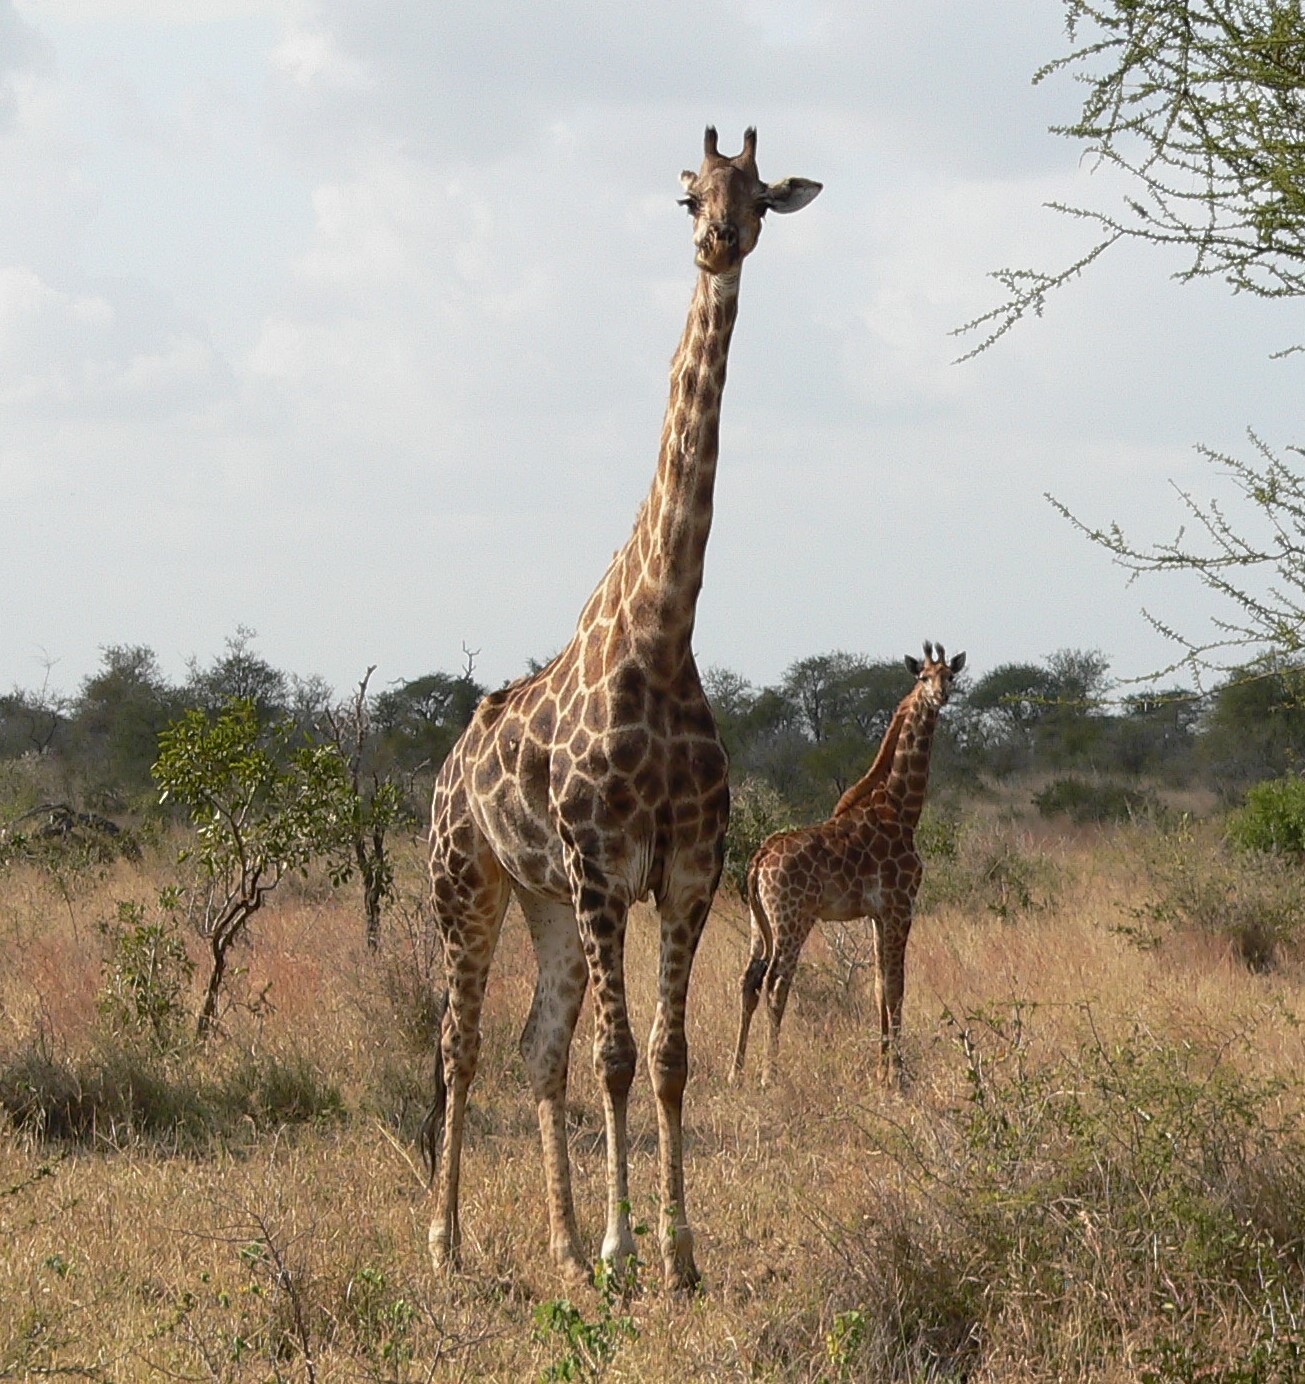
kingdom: Animalia
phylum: Chordata
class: Mammalia
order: Artiodactyla
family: Giraffidae
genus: Giraffa
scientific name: Giraffa giraffa
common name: Southern giraffe
